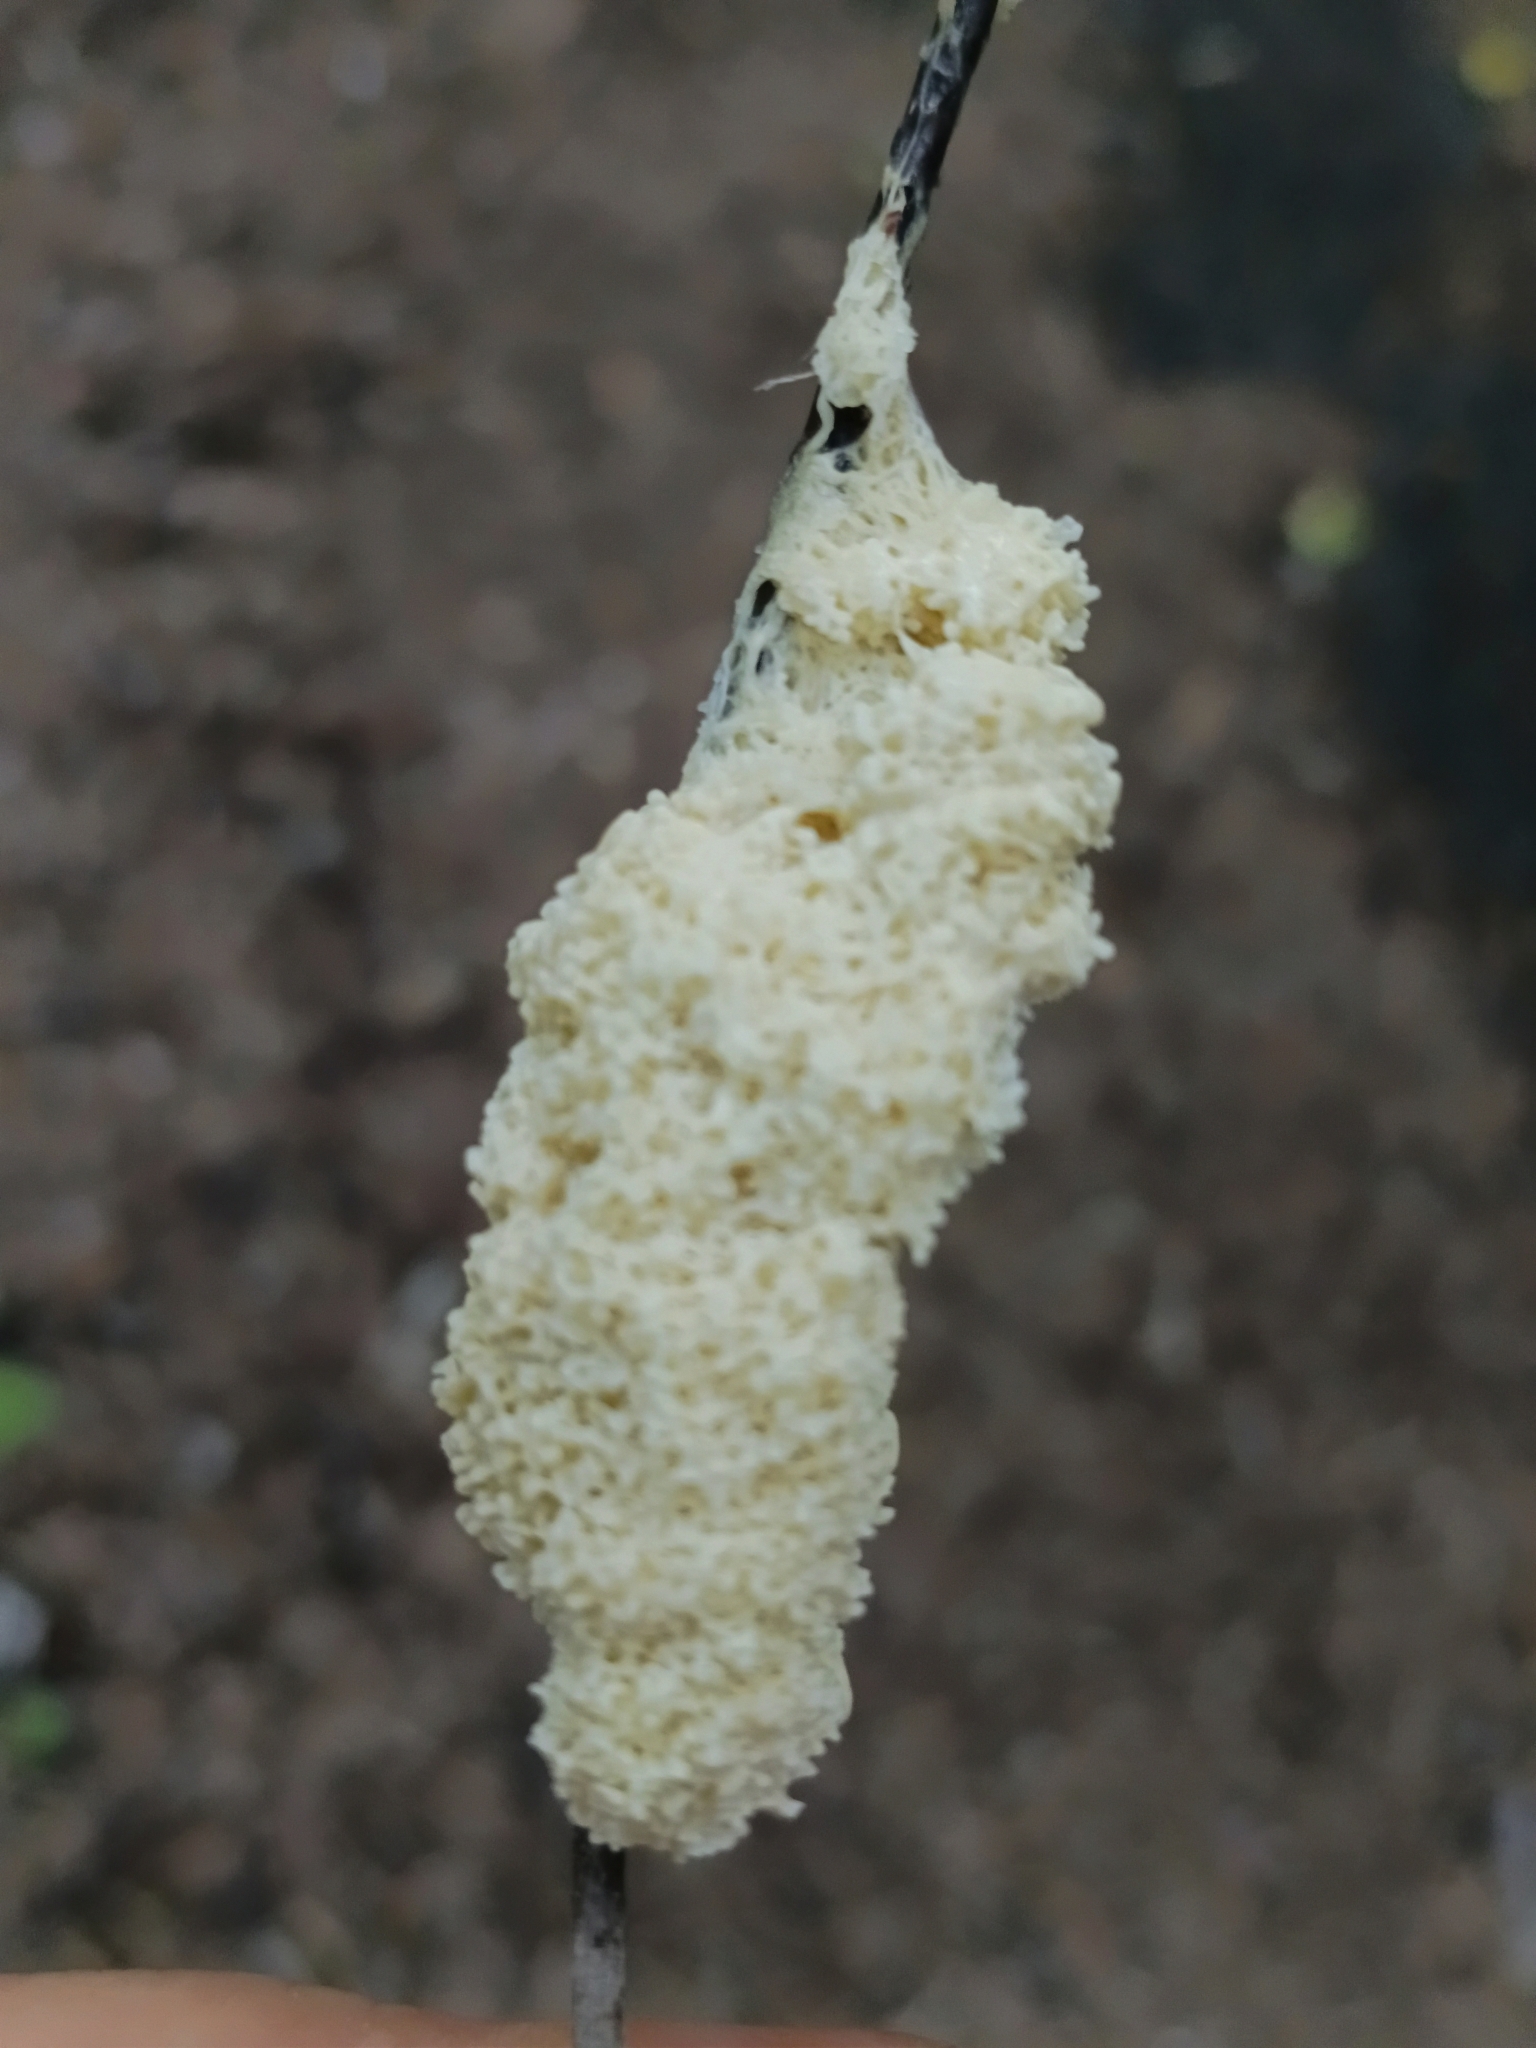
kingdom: Protozoa
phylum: Mycetozoa
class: Myxomycetes
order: Physarales
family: Physaraceae
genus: Didymium
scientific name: Didymium
